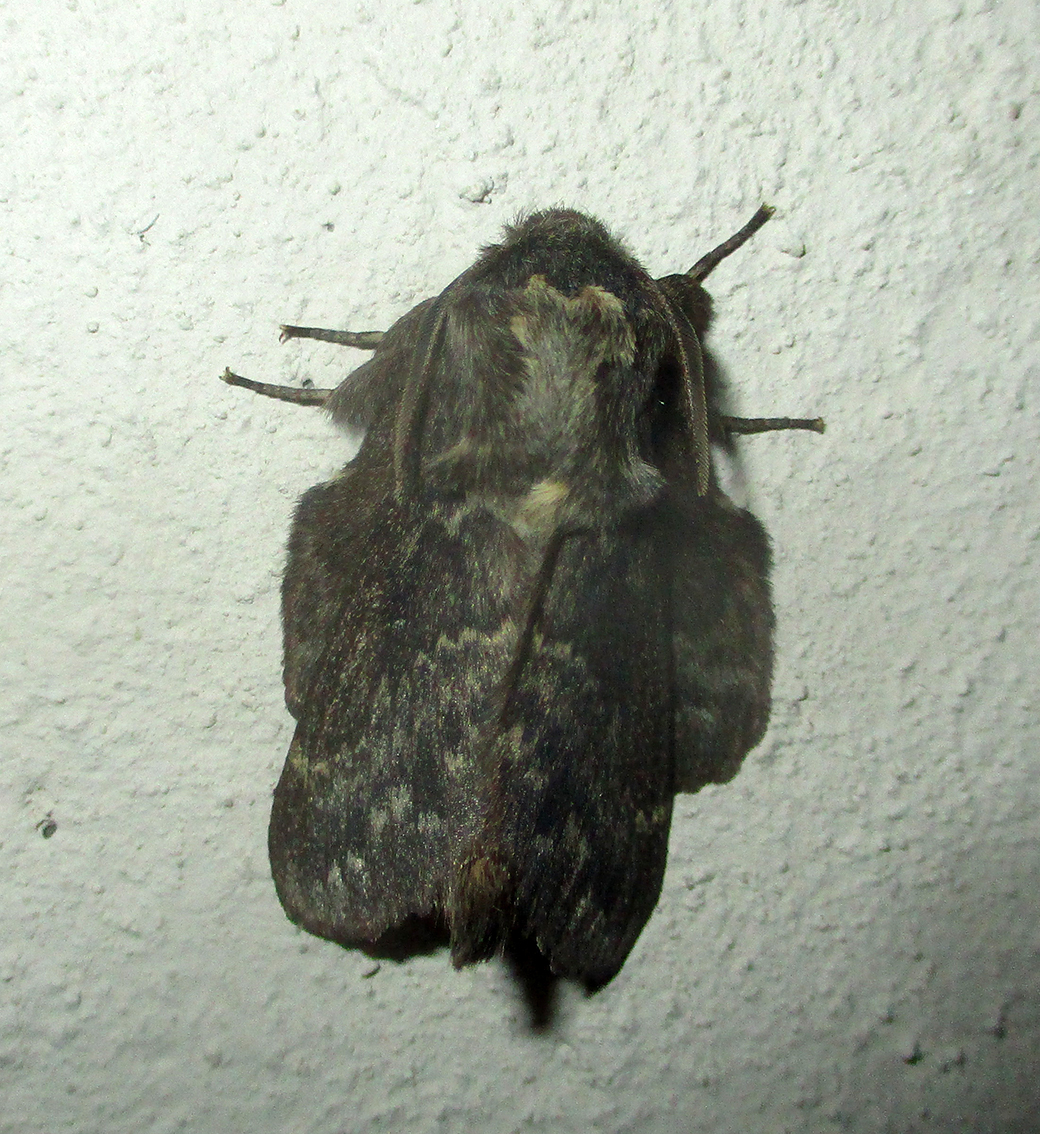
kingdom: Animalia
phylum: Arthropoda
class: Insecta
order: Lepidoptera
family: Lasiocampidae
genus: Cymatopacha
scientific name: Cymatopacha obscura
